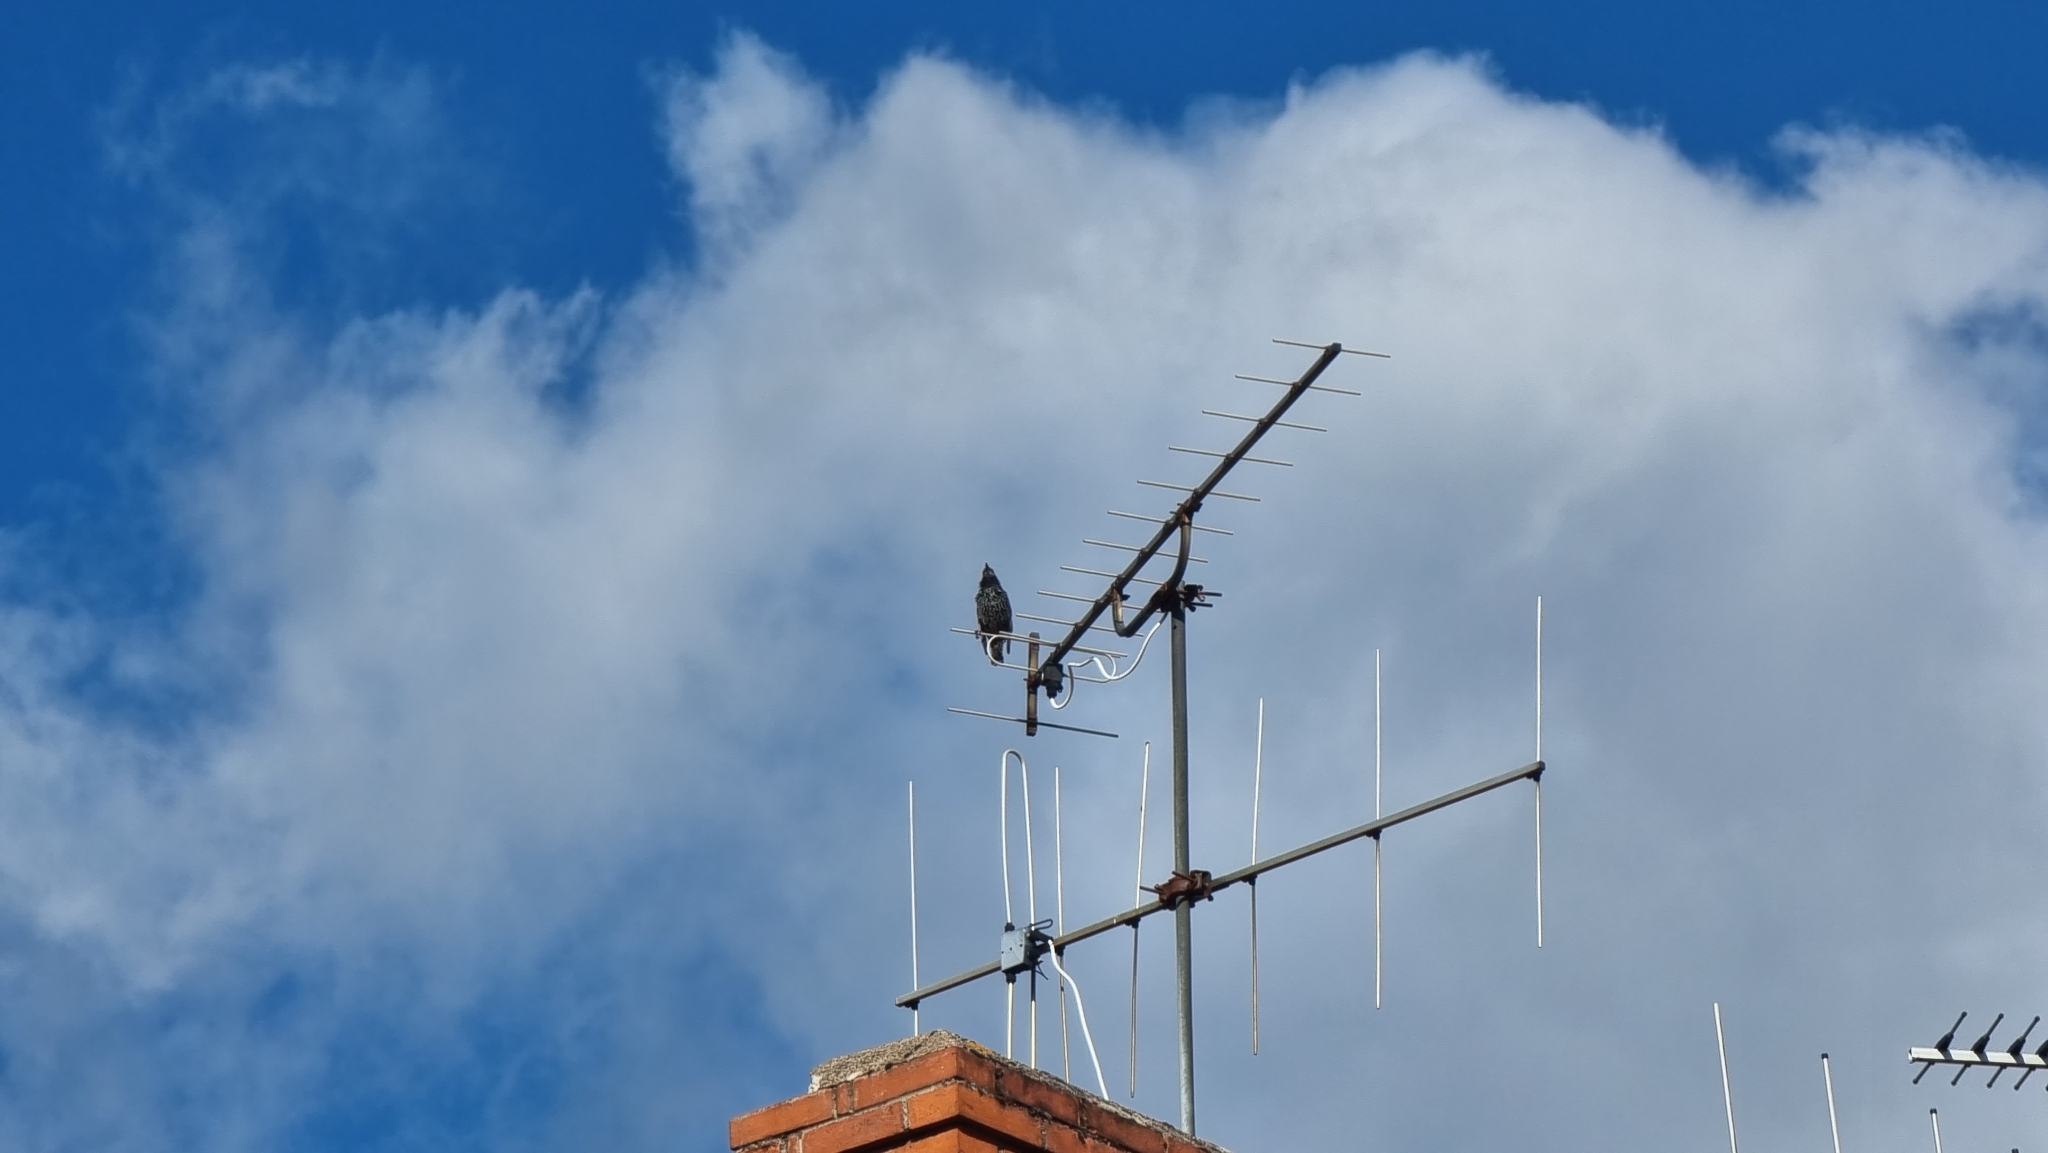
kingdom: Animalia
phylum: Chordata
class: Aves
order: Passeriformes
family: Sturnidae
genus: Sturnus
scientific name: Sturnus vulgaris
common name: Common starling
